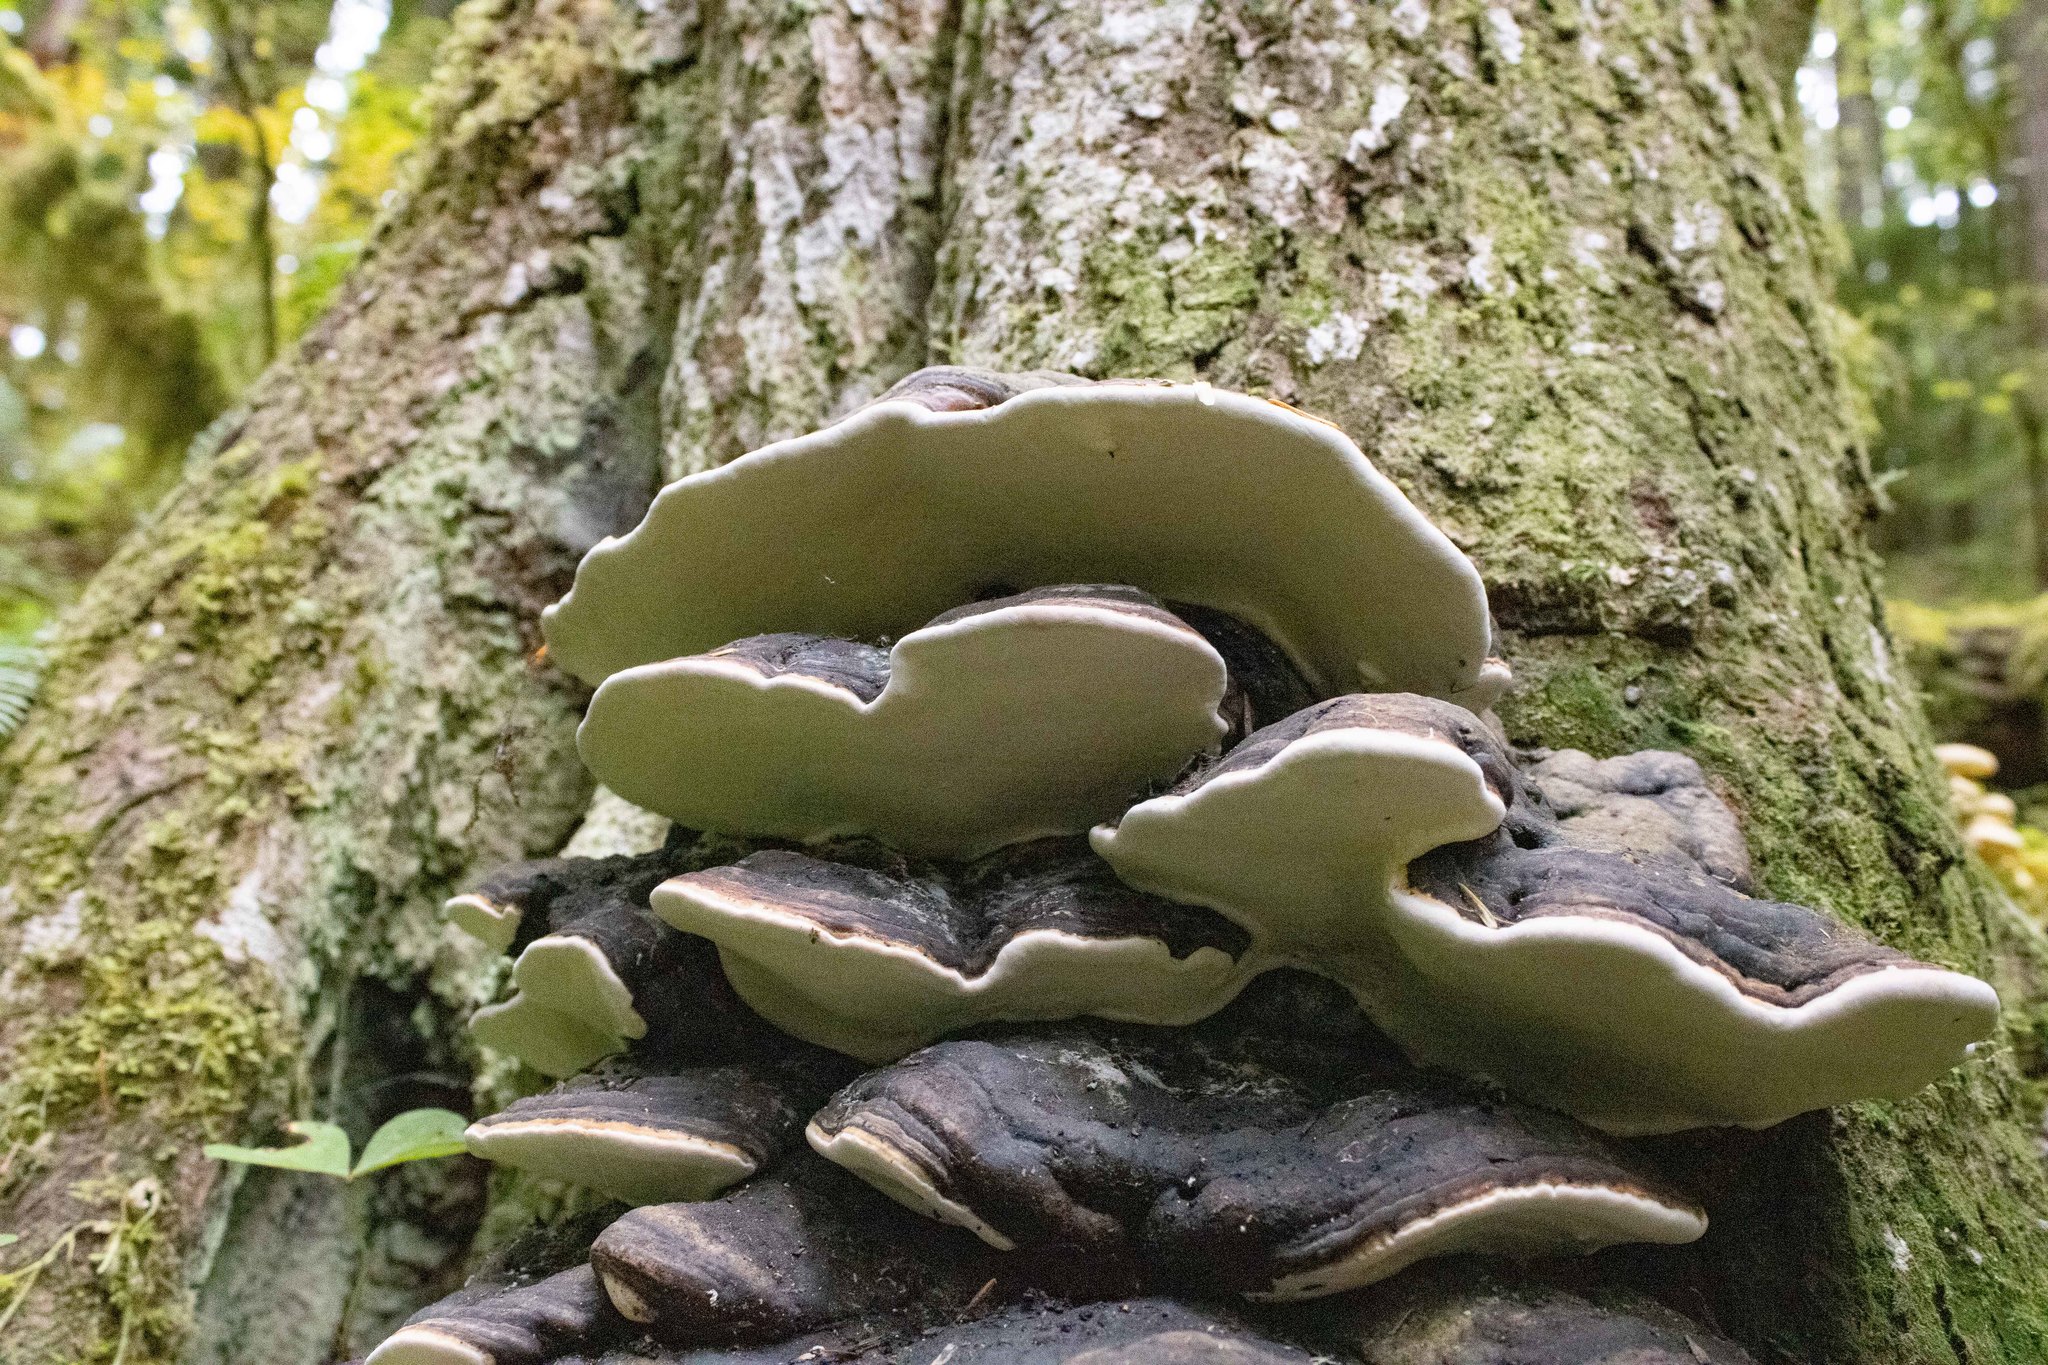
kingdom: Fungi
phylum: Basidiomycota
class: Agaricomycetes
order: Polyporales
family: Fomitopsidaceae
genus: Fomitopsis
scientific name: Fomitopsis ochracea
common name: American brown fomitopsis
